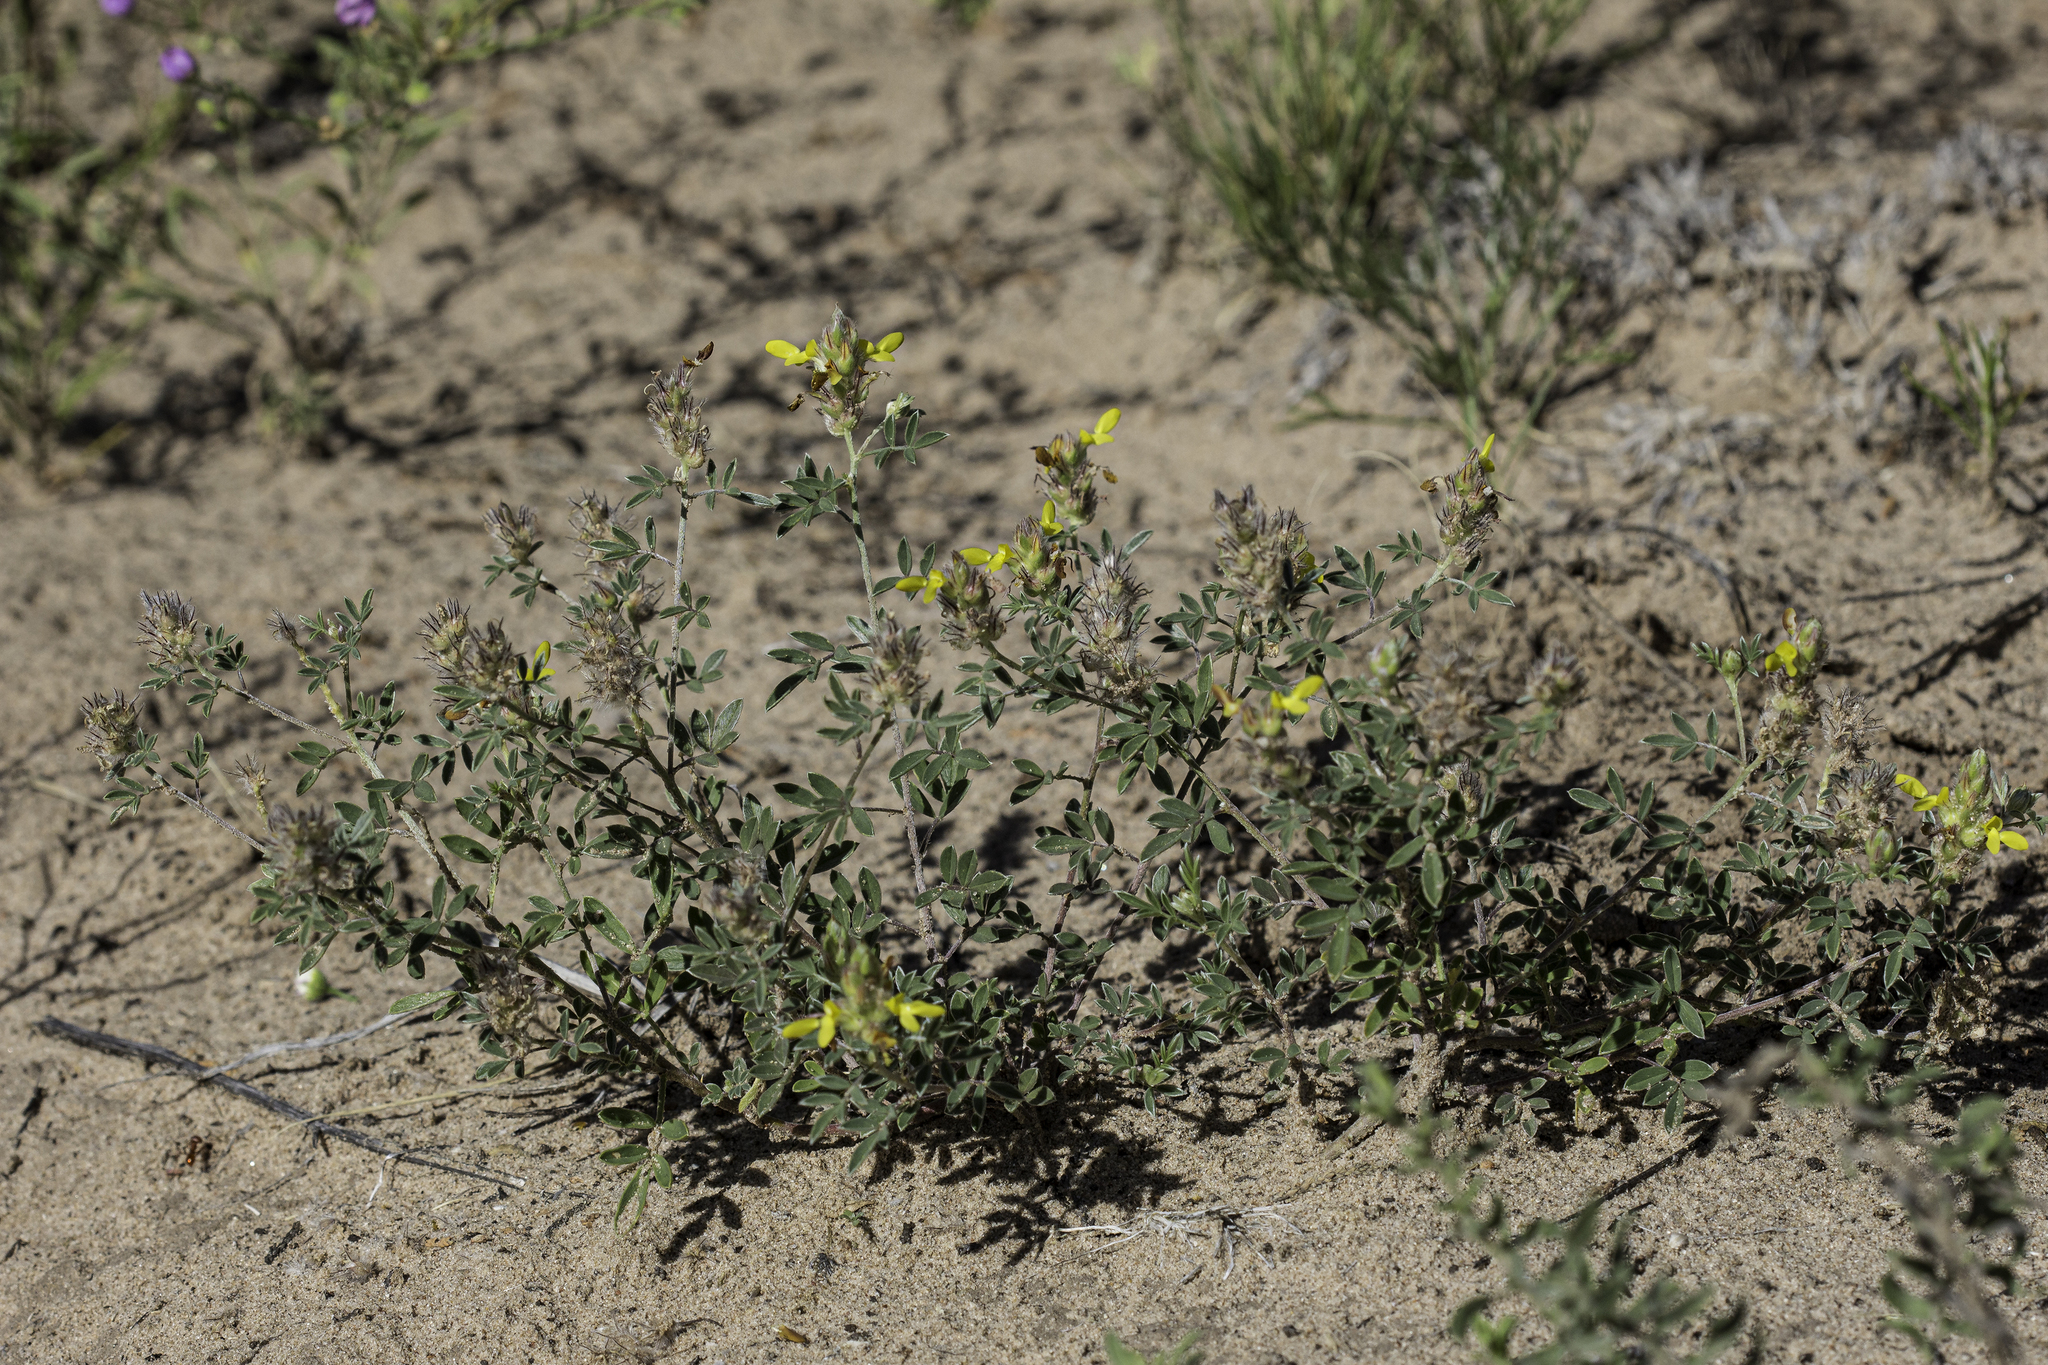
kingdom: Plantae
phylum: Tracheophyta
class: Magnoliopsida
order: Fabales
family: Fabaceae
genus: Dalea
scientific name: Dalea nana
